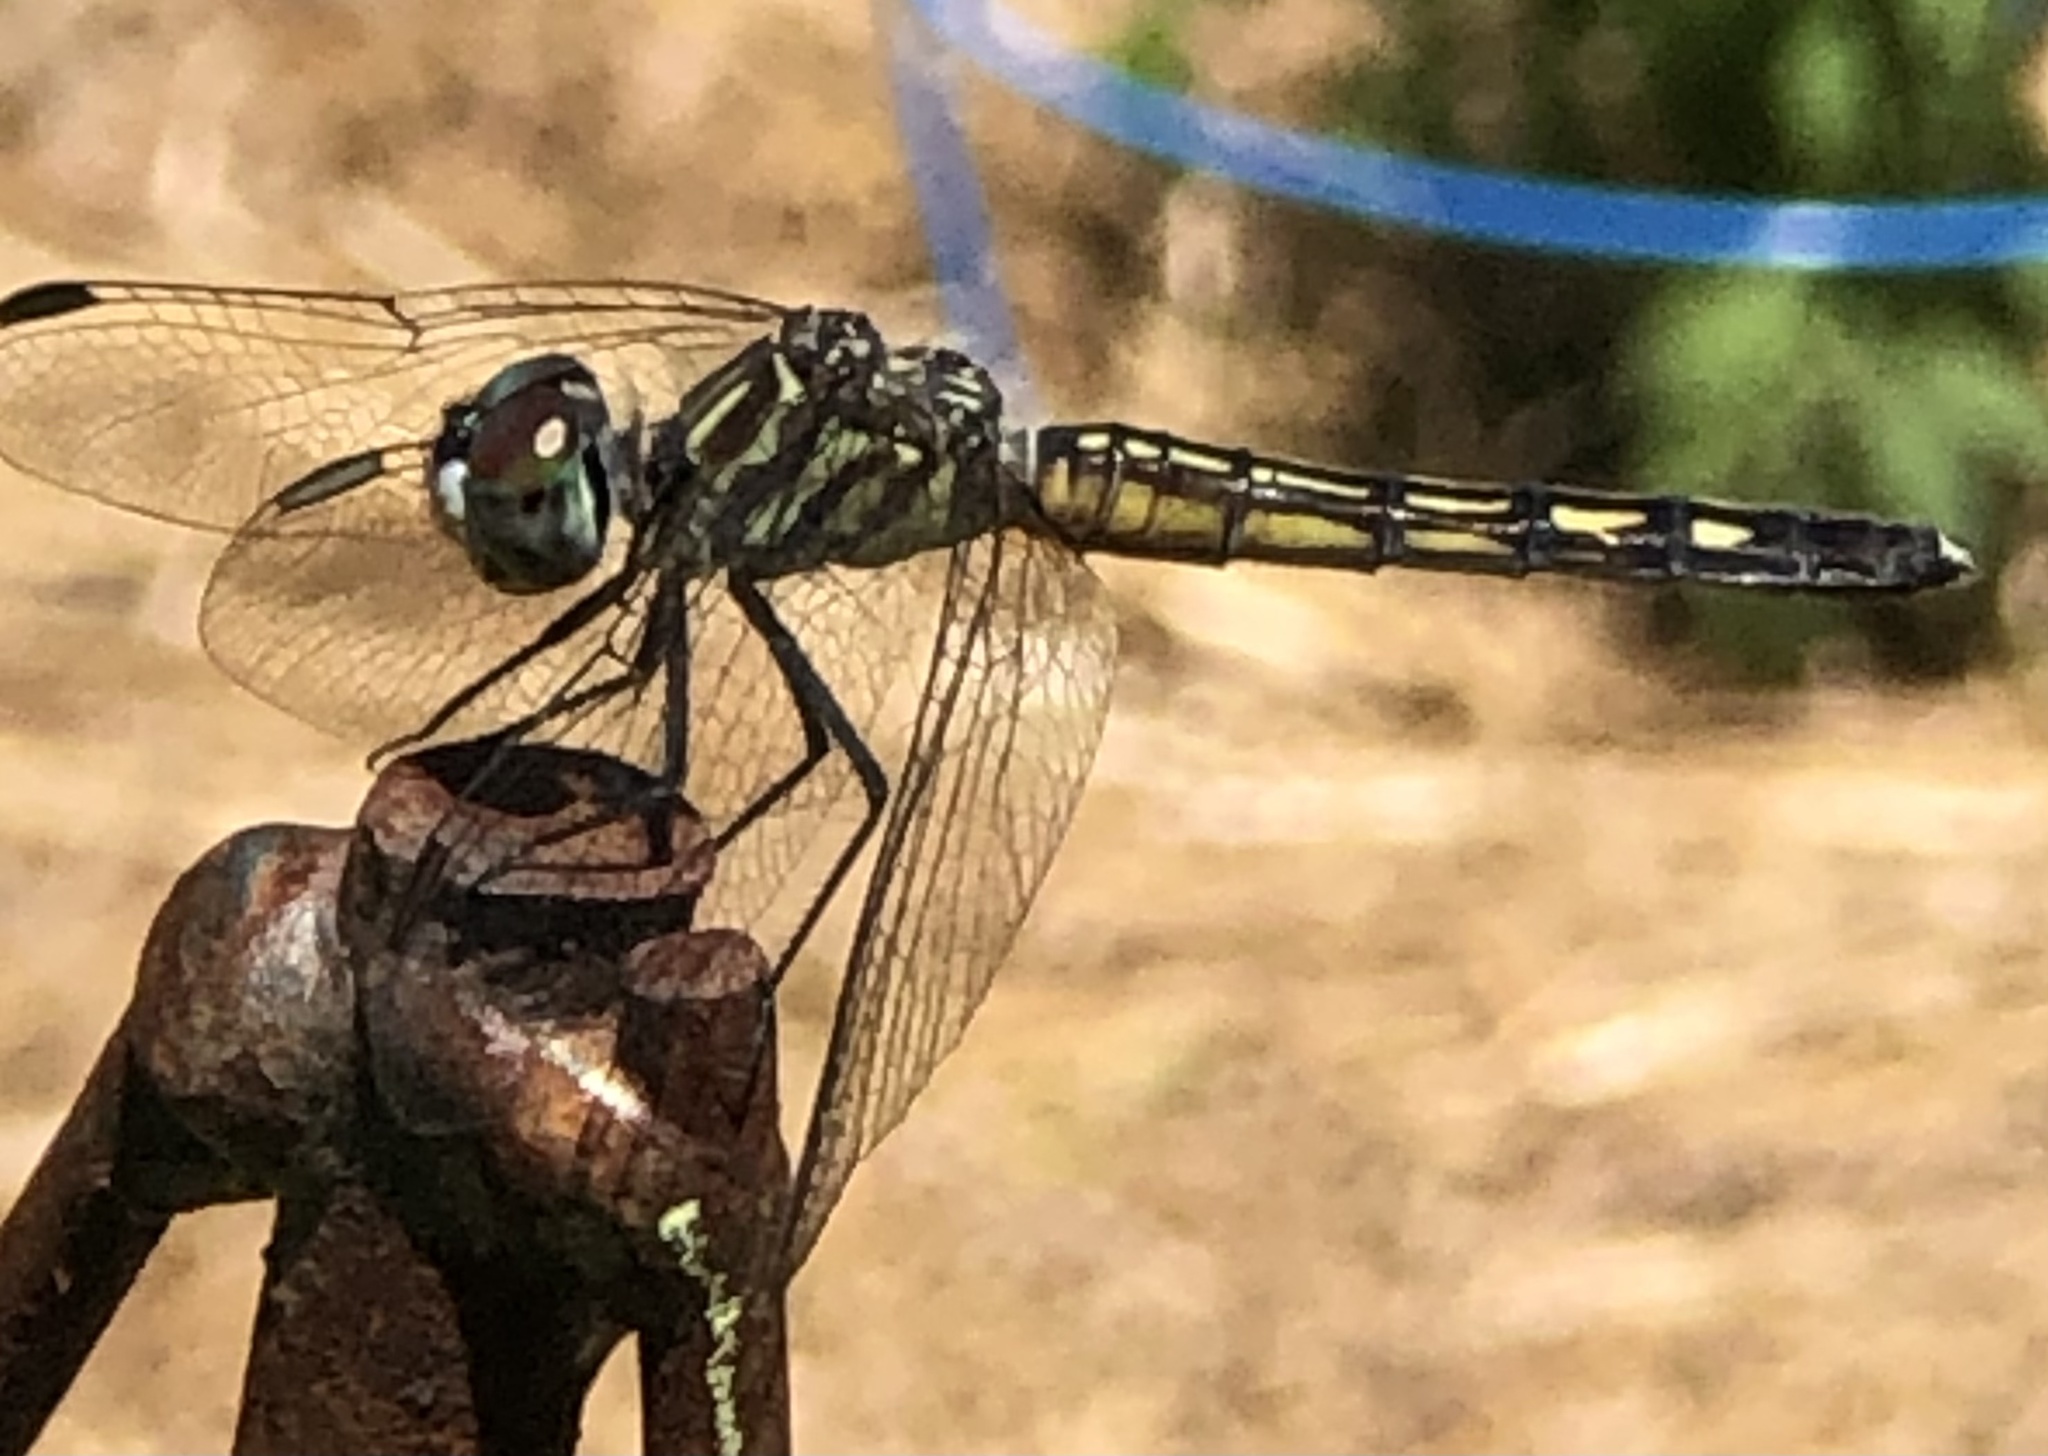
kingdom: Animalia
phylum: Arthropoda
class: Insecta
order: Odonata
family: Libellulidae
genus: Pachydiplax
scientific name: Pachydiplax longipennis
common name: Blue dasher
